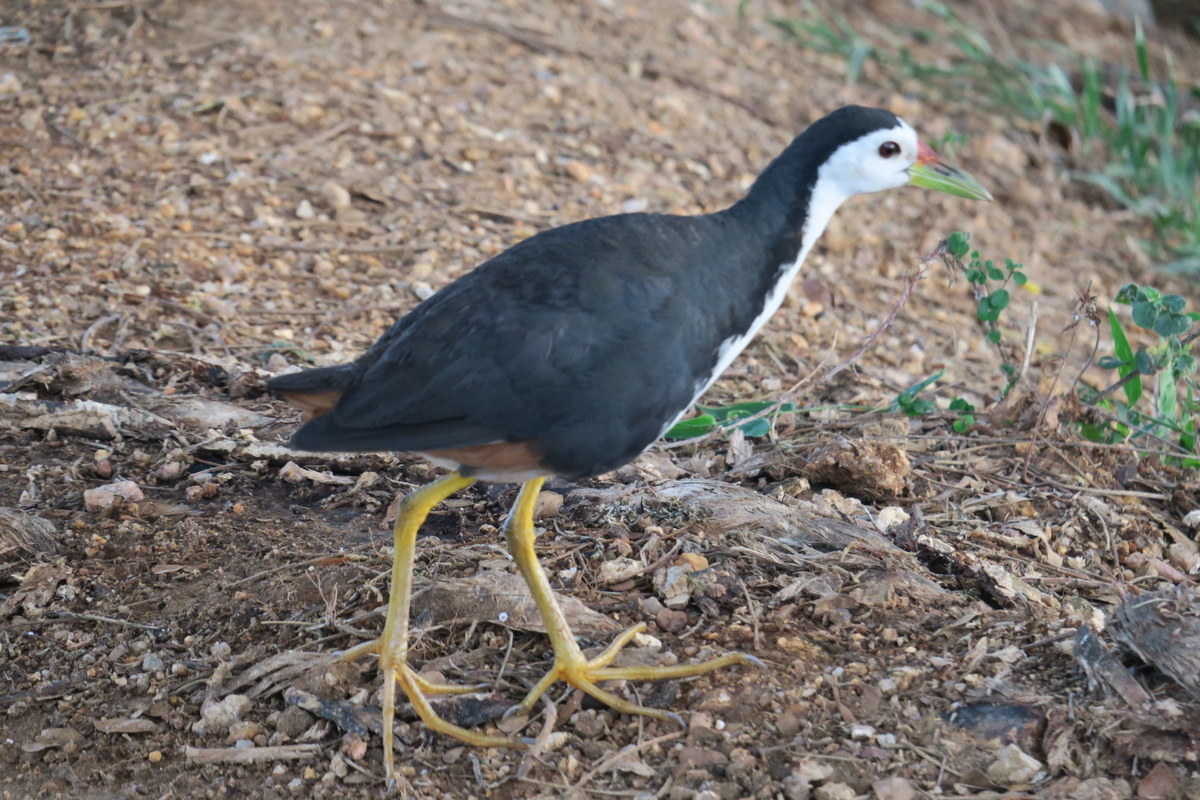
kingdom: Animalia
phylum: Chordata
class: Aves
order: Gruiformes
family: Rallidae
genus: Amaurornis
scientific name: Amaurornis phoenicurus
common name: White-breasted waterhen
